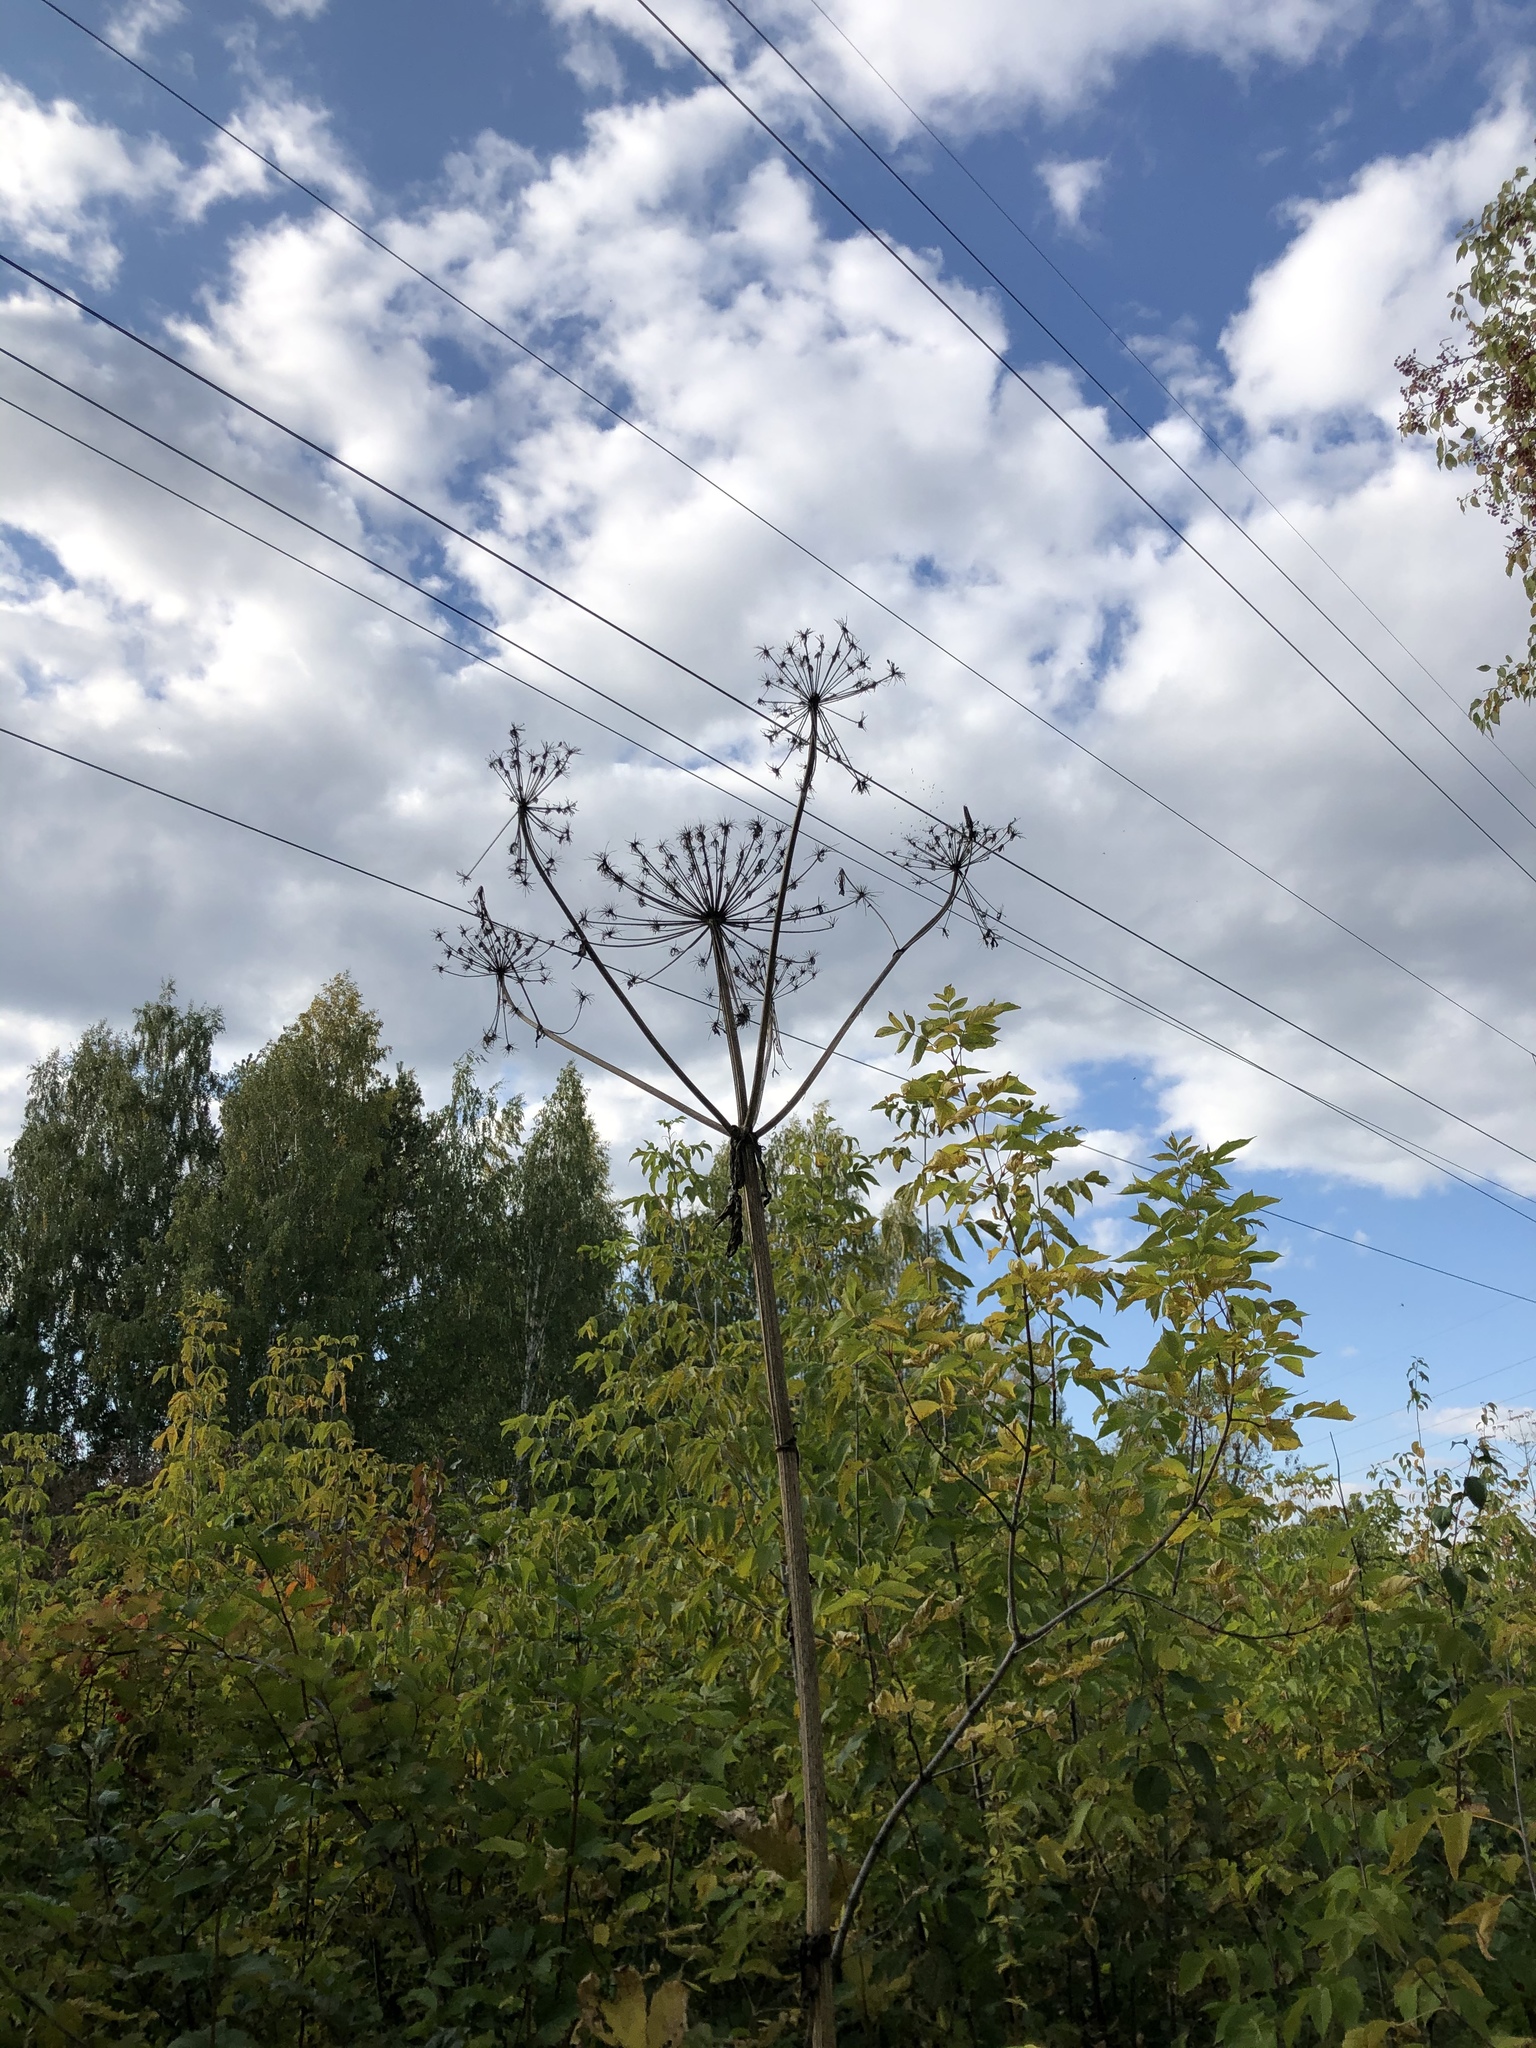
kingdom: Plantae
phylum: Tracheophyta
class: Magnoliopsida
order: Apiales
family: Apiaceae
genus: Heracleum
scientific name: Heracleum sosnowskyi
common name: Sosnowsky's hogweed
